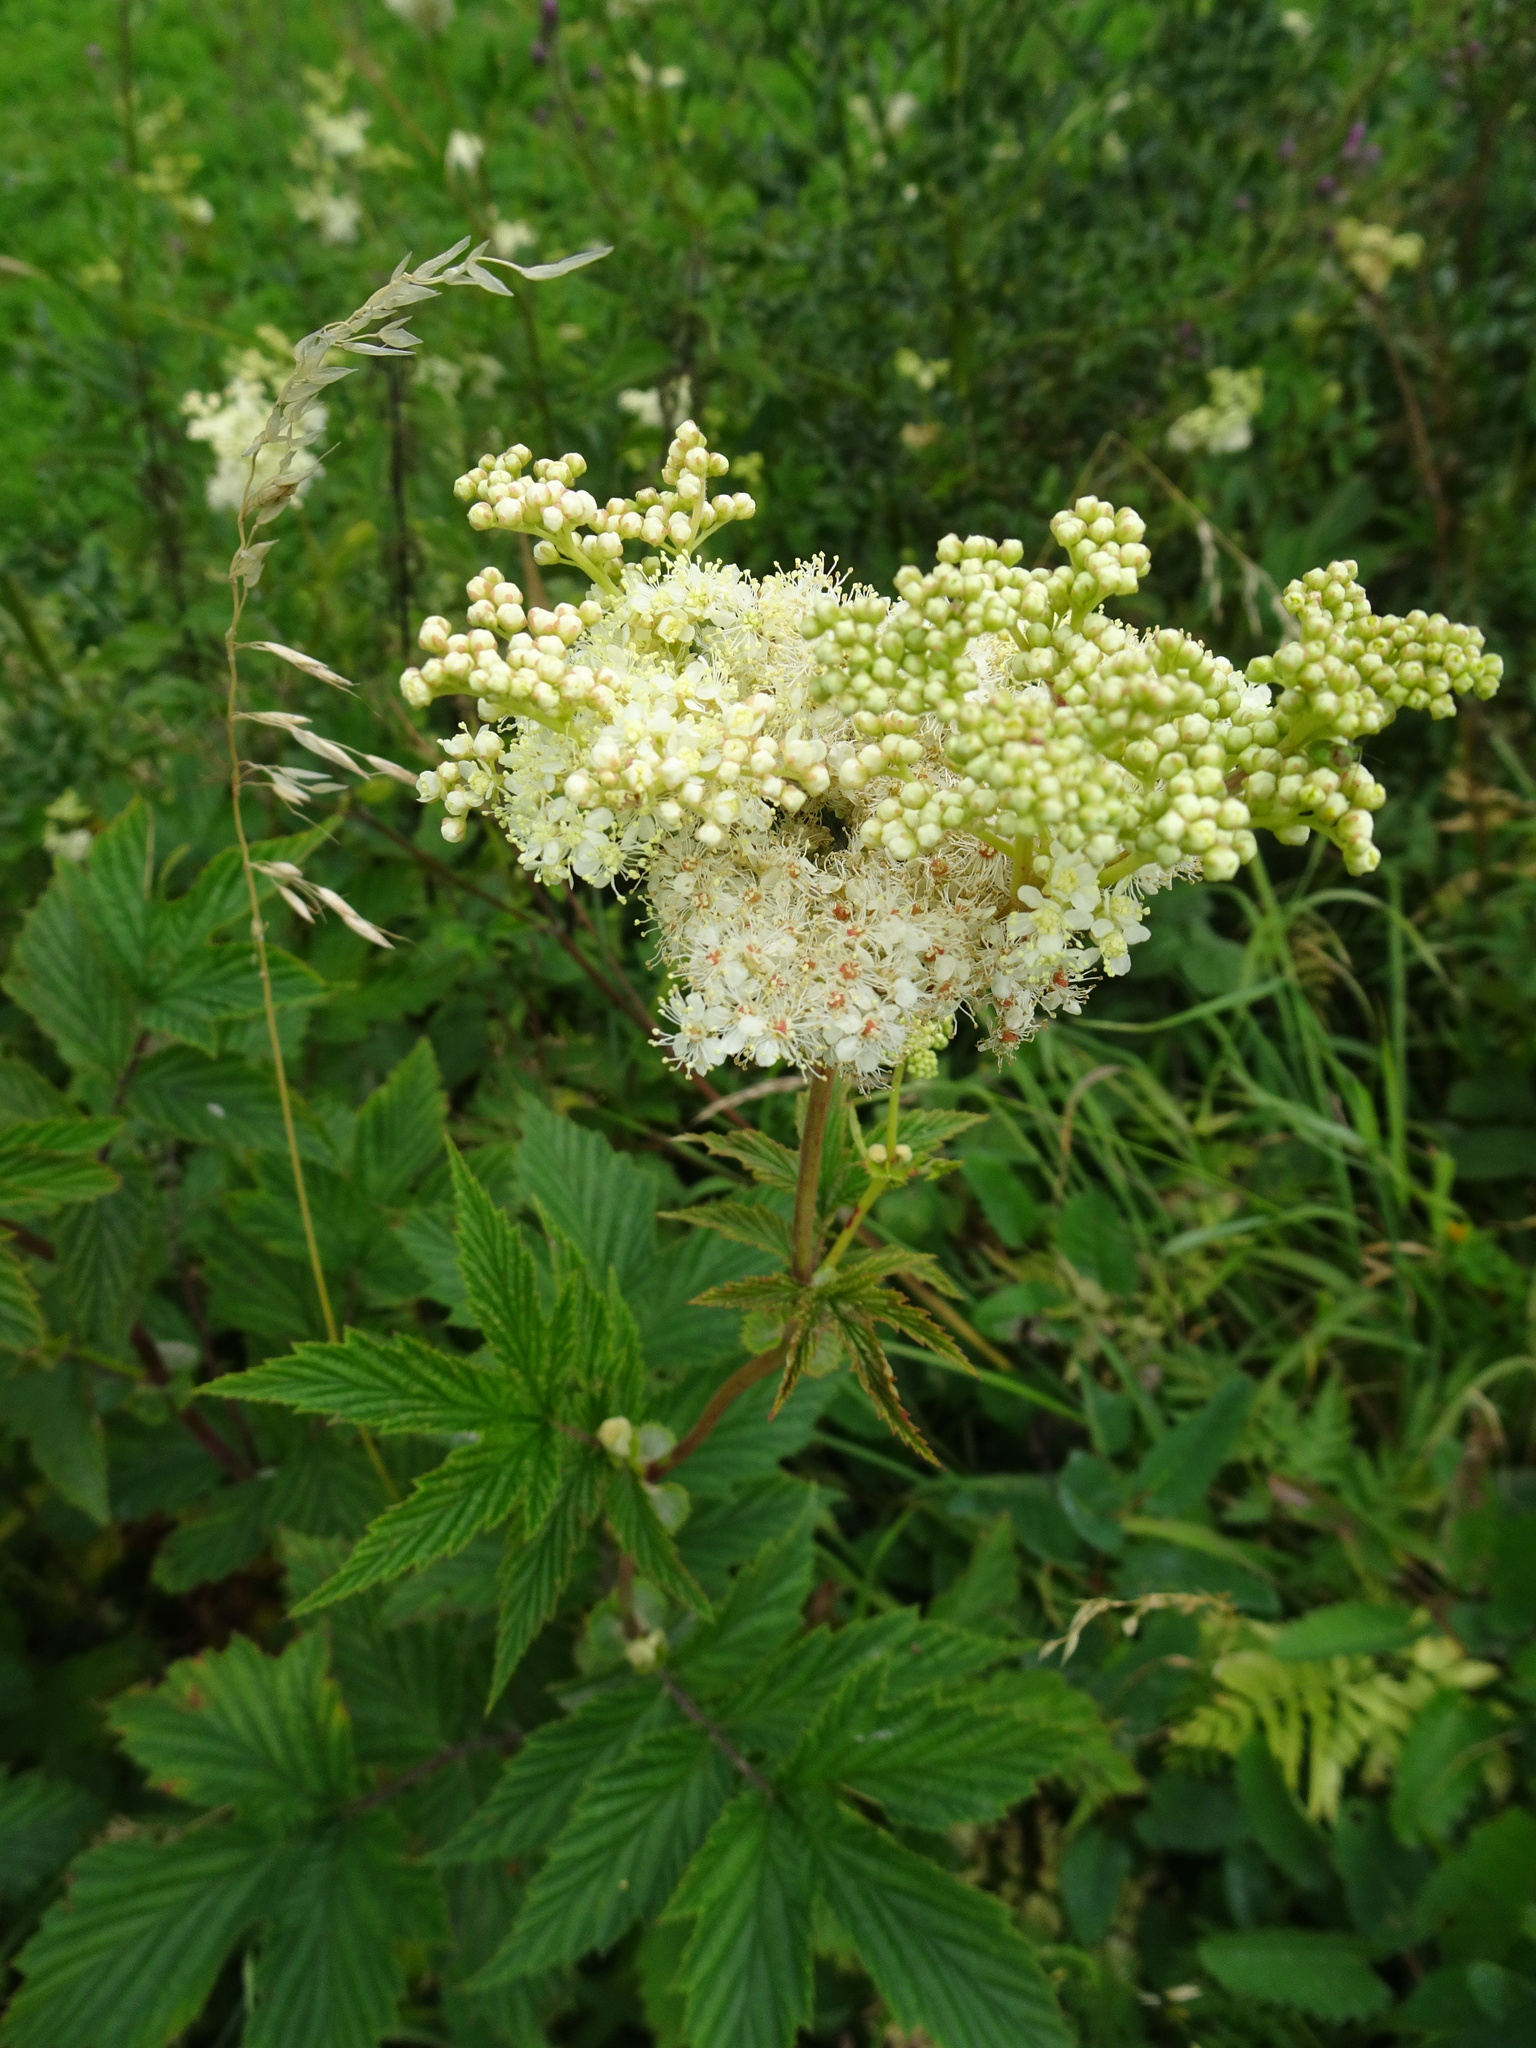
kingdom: Plantae
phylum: Tracheophyta
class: Magnoliopsida
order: Rosales
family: Rosaceae
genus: Filipendula
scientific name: Filipendula ulmaria
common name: Meadowsweet
